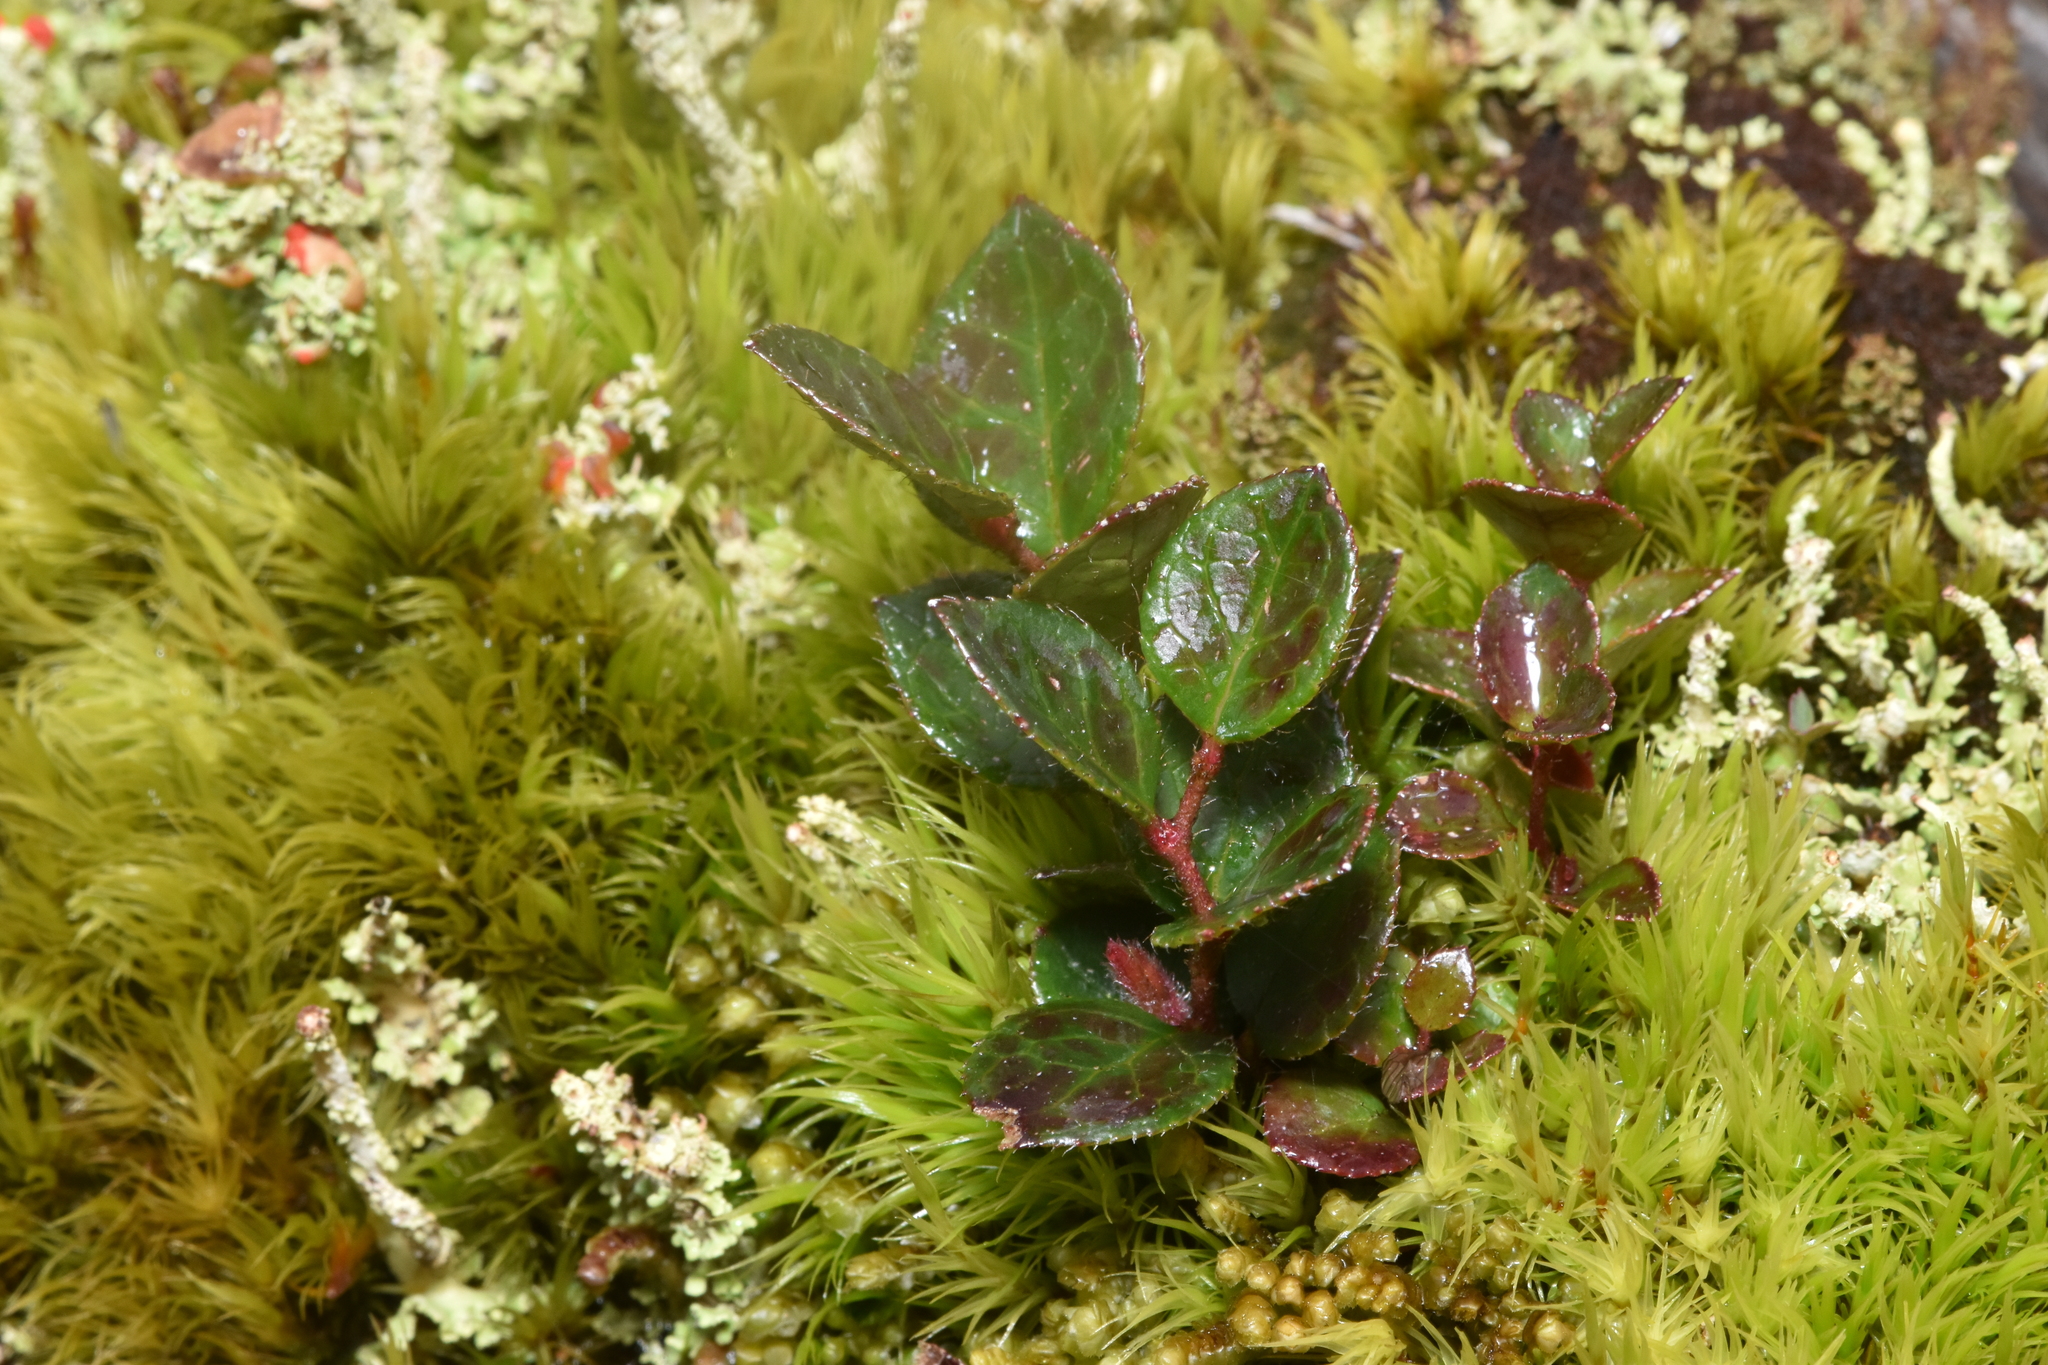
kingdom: Plantae
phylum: Tracheophyta
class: Magnoliopsida
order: Ericales
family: Ericaceae
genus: Gaultheria
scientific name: Gaultheria shallon
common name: Shallon
